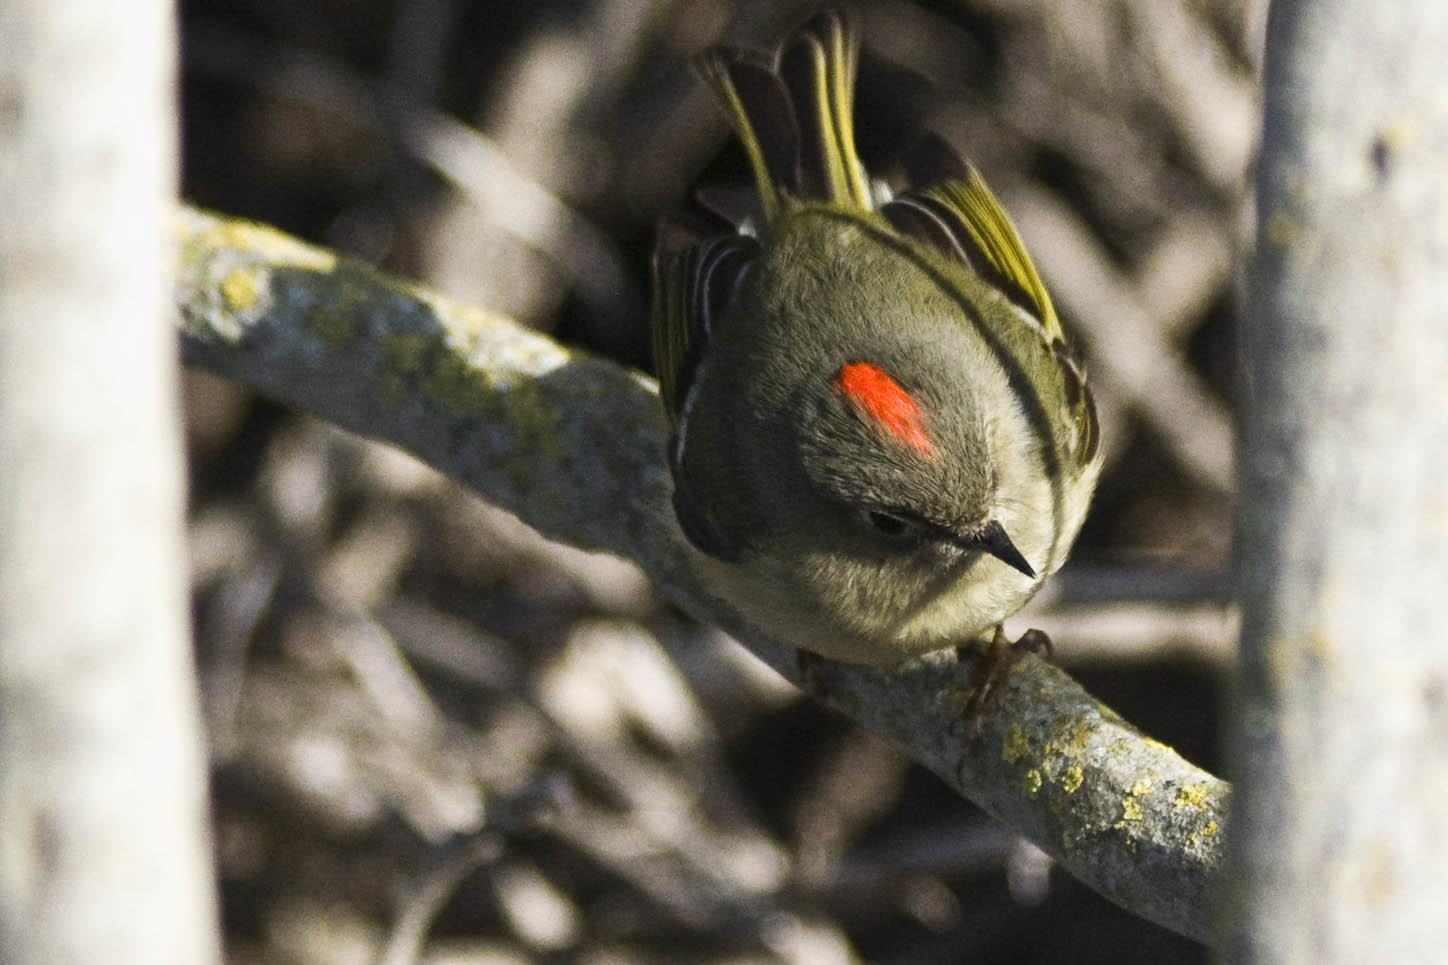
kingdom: Animalia
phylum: Chordata
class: Aves
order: Passeriformes
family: Regulidae
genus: Regulus
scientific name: Regulus calendula
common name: Ruby-crowned kinglet
